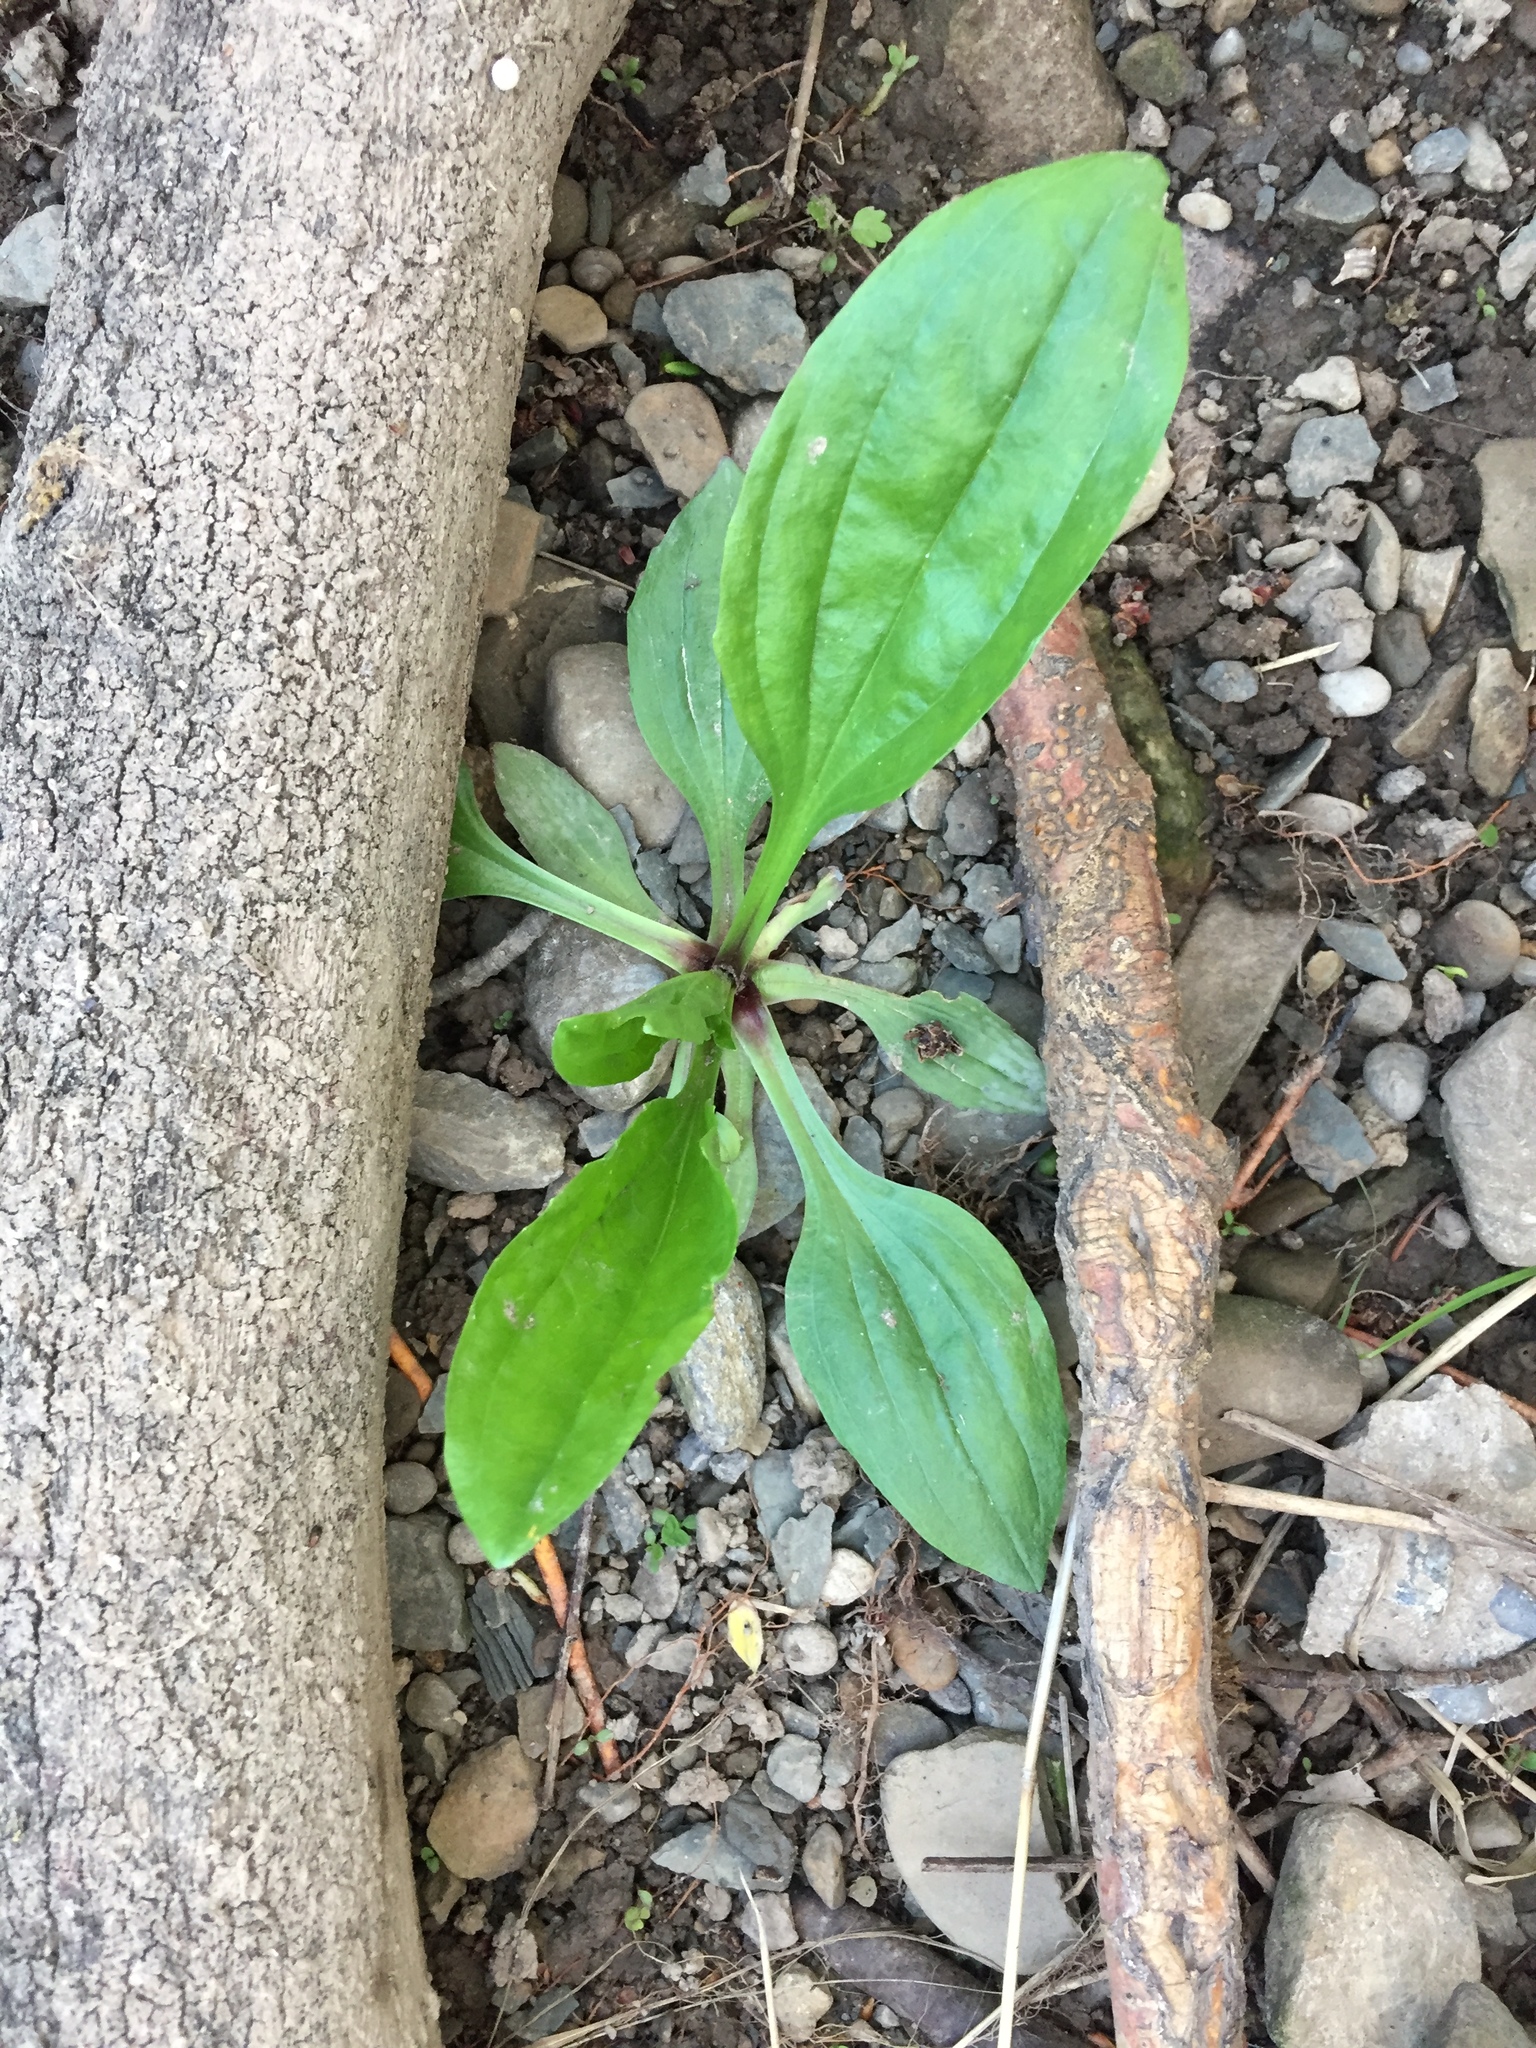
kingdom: Plantae
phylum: Tracheophyta
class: Magnoliopsida
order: Lamiales
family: Plantaginaceae
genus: Plantago
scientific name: Plantago rugelii
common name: American plantain
